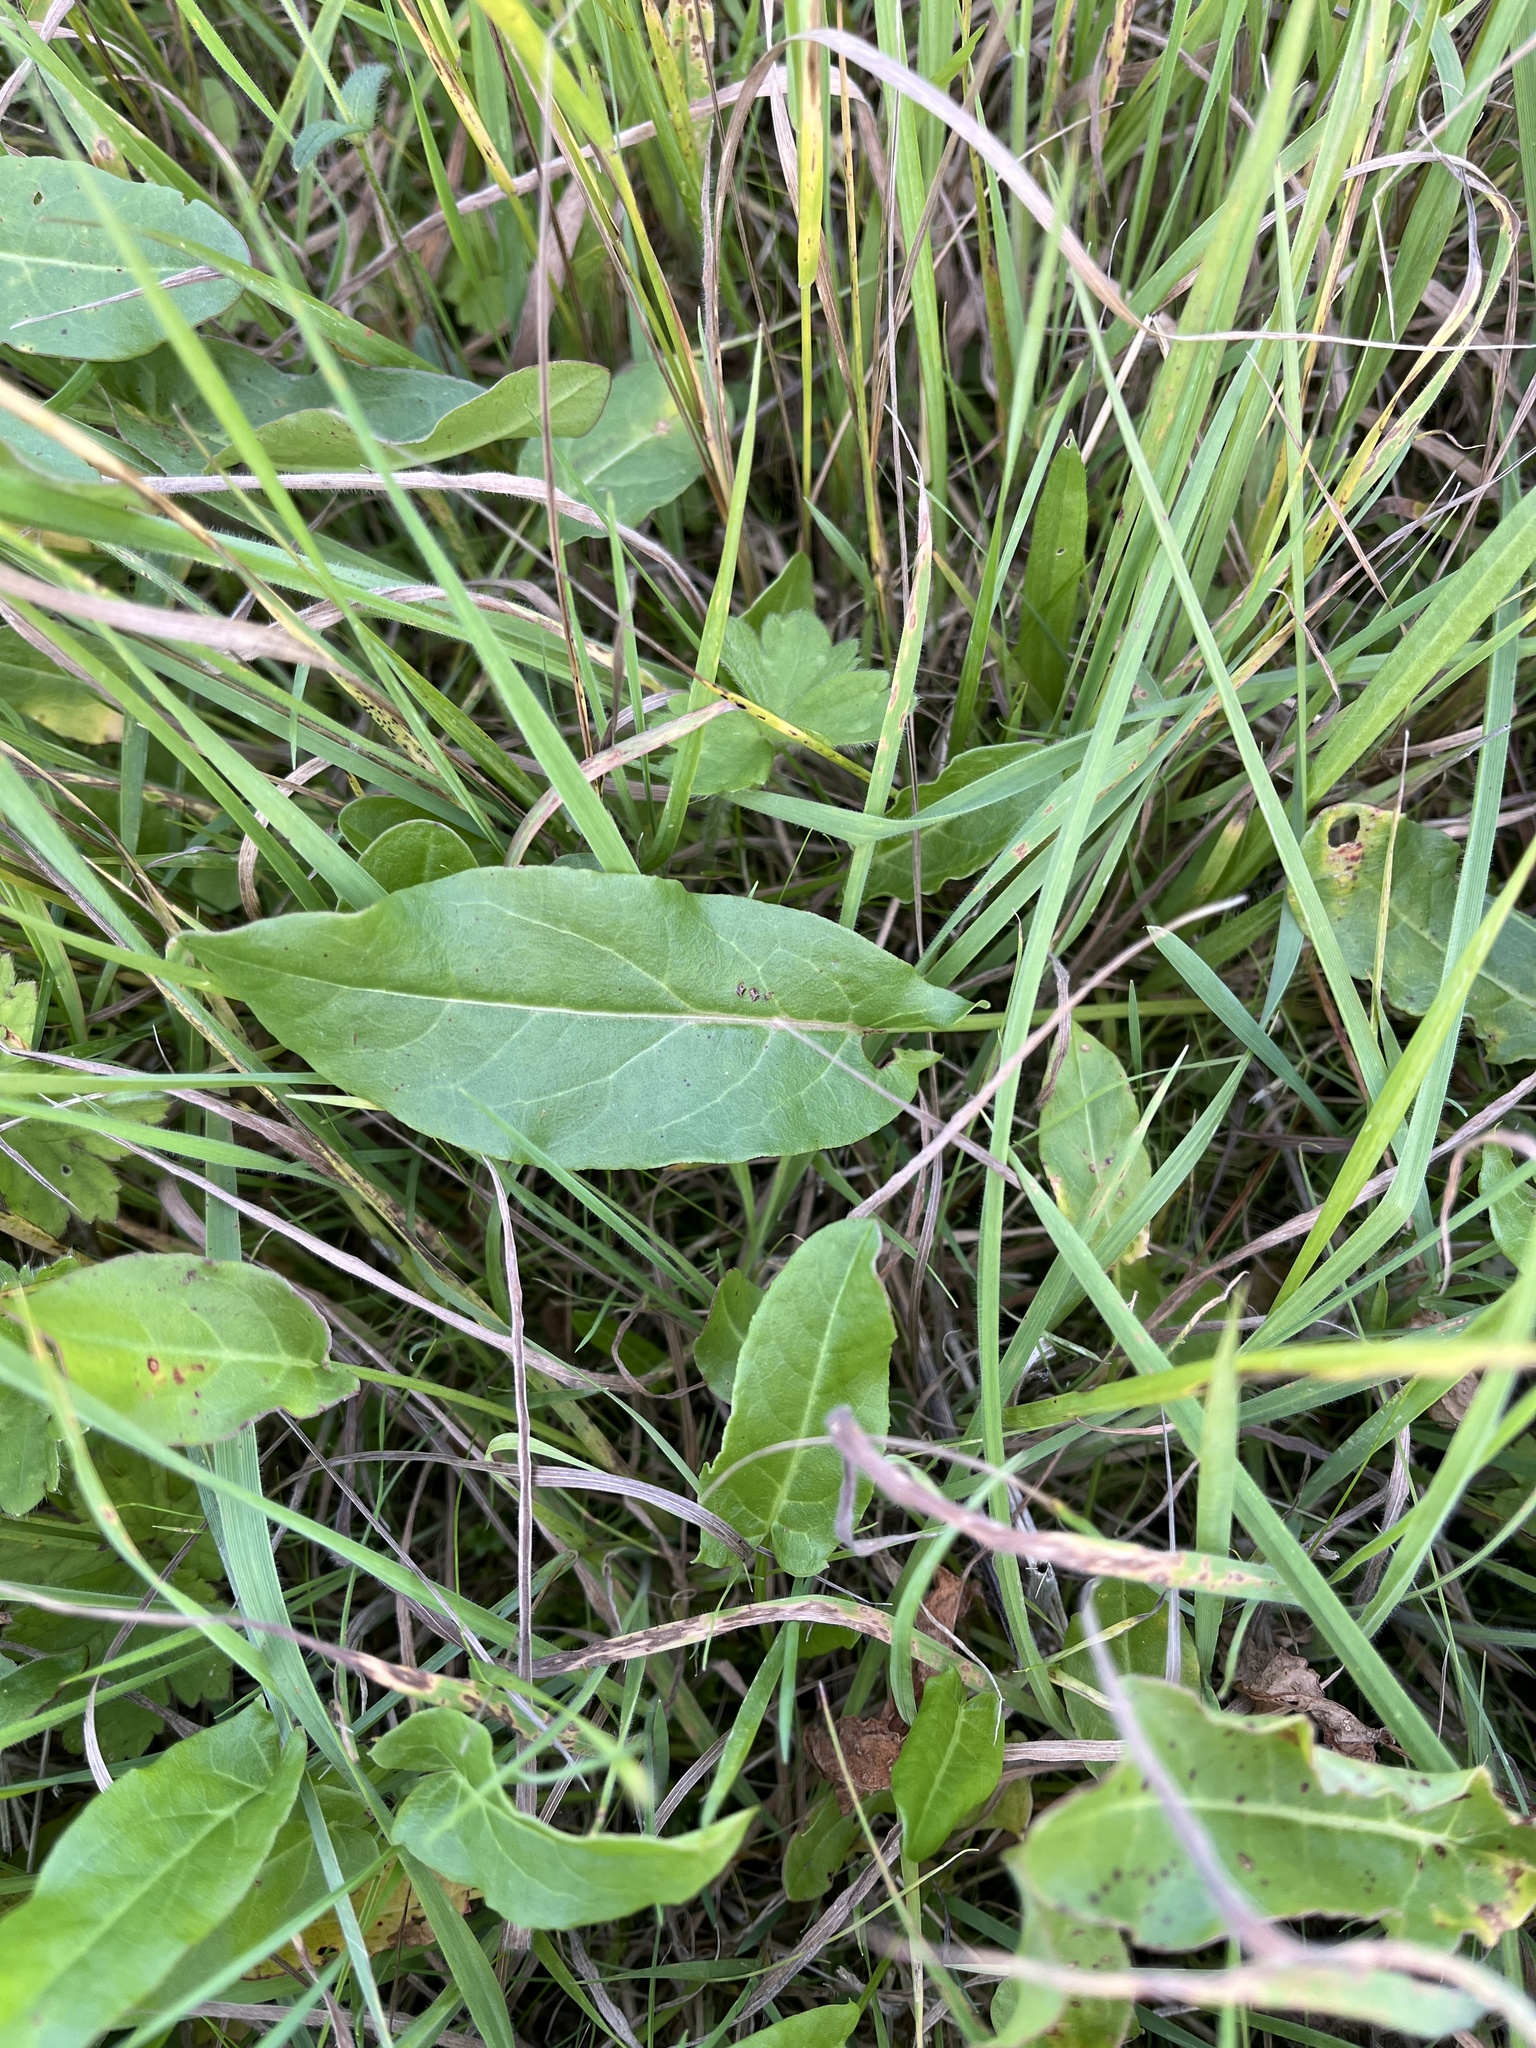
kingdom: Plantae
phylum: Tracheophyta
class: Magnoliopsida
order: Caryophyllales
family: Polygonaceae
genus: Rumex
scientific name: Rumex acetosa
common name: Garden sorrel
